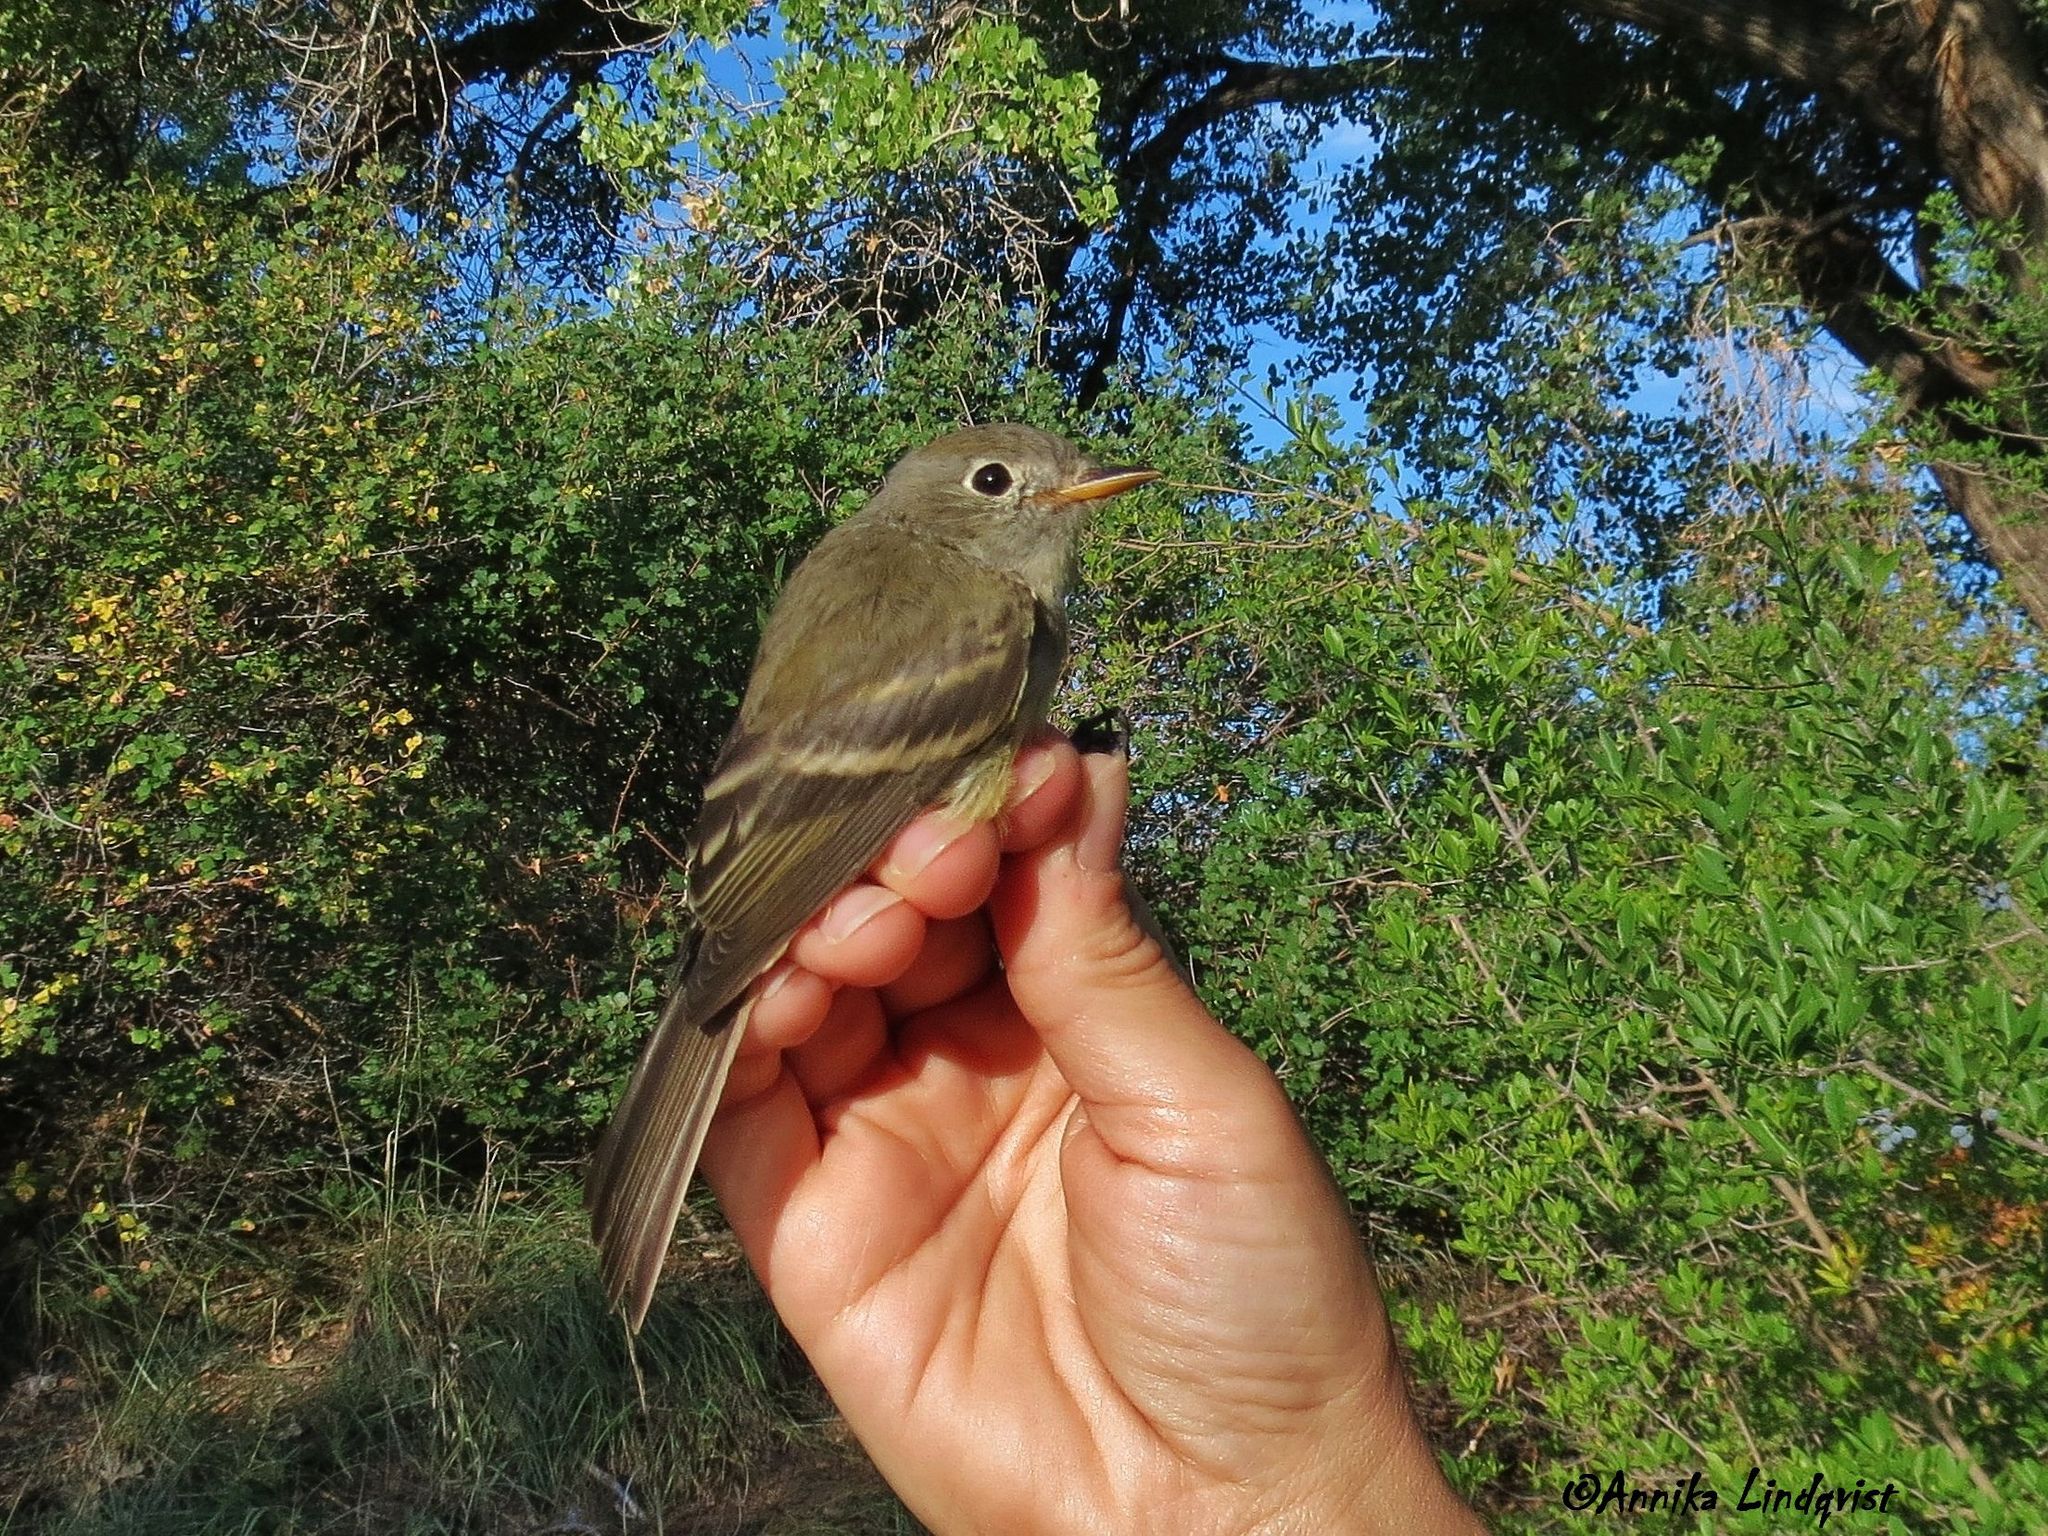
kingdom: Animalia
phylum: Chordata
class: Aves
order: Passeriformes
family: Tyrannidae
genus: Empidonax
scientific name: Empidonax oberholseri
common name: Dusky flycatcher
